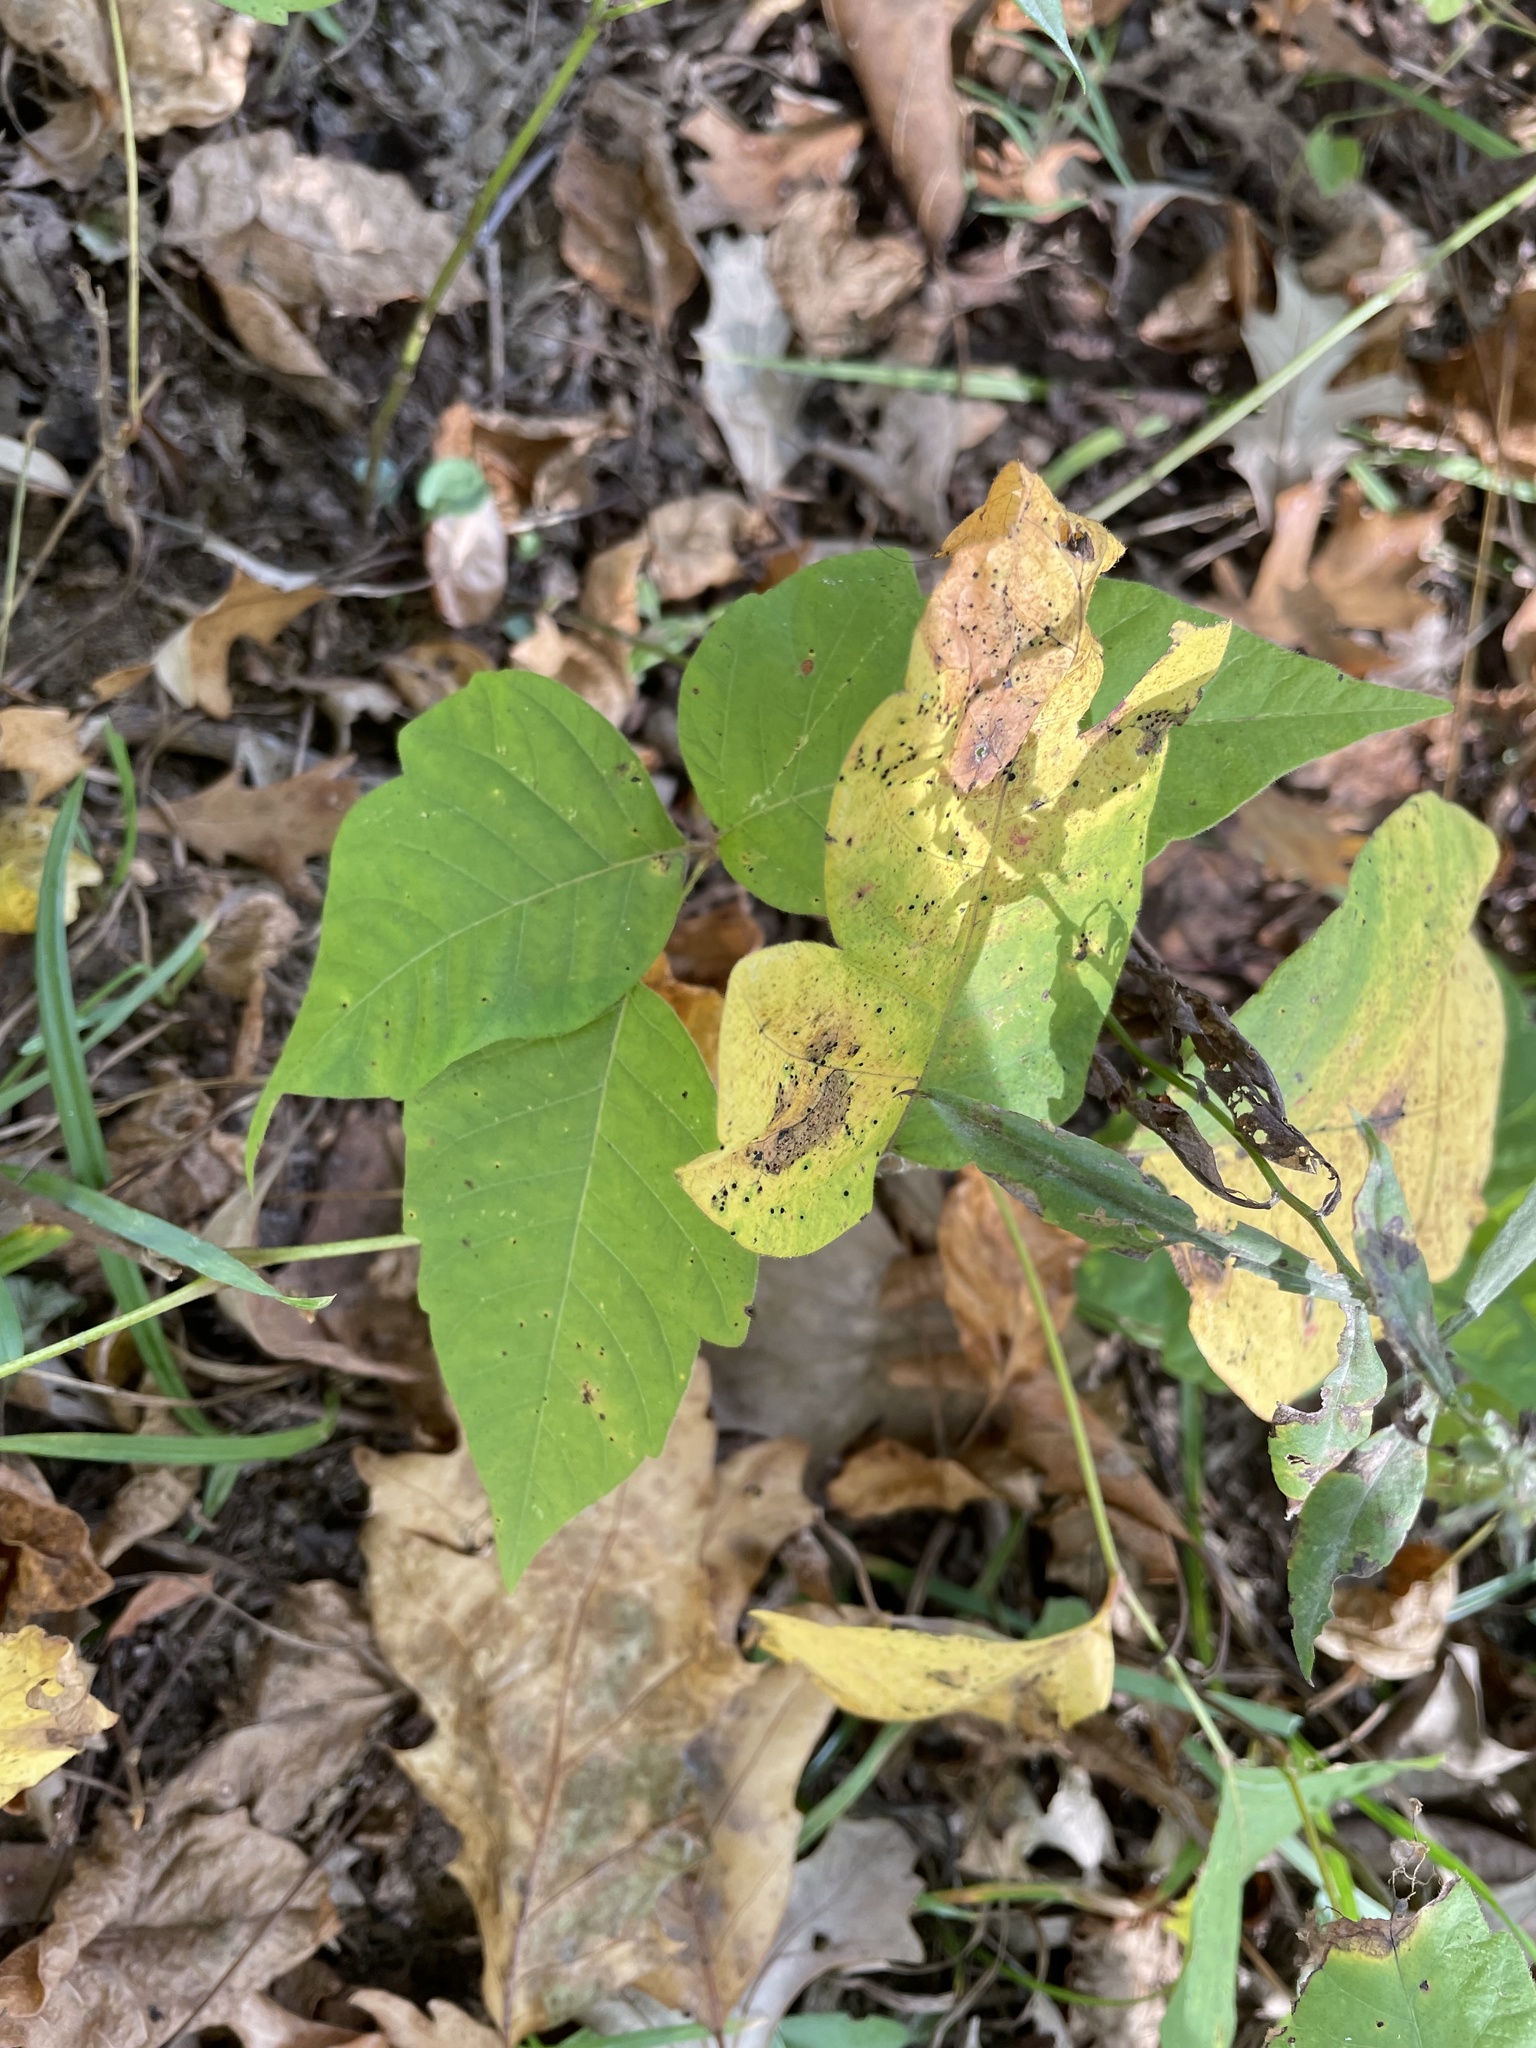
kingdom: Plantae
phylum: Tracheophyta
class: Magnoliopsida
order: Sapindales
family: Anacardiaceae
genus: Toxicodendron
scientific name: Toxicodendron radicans
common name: Poison ivy
